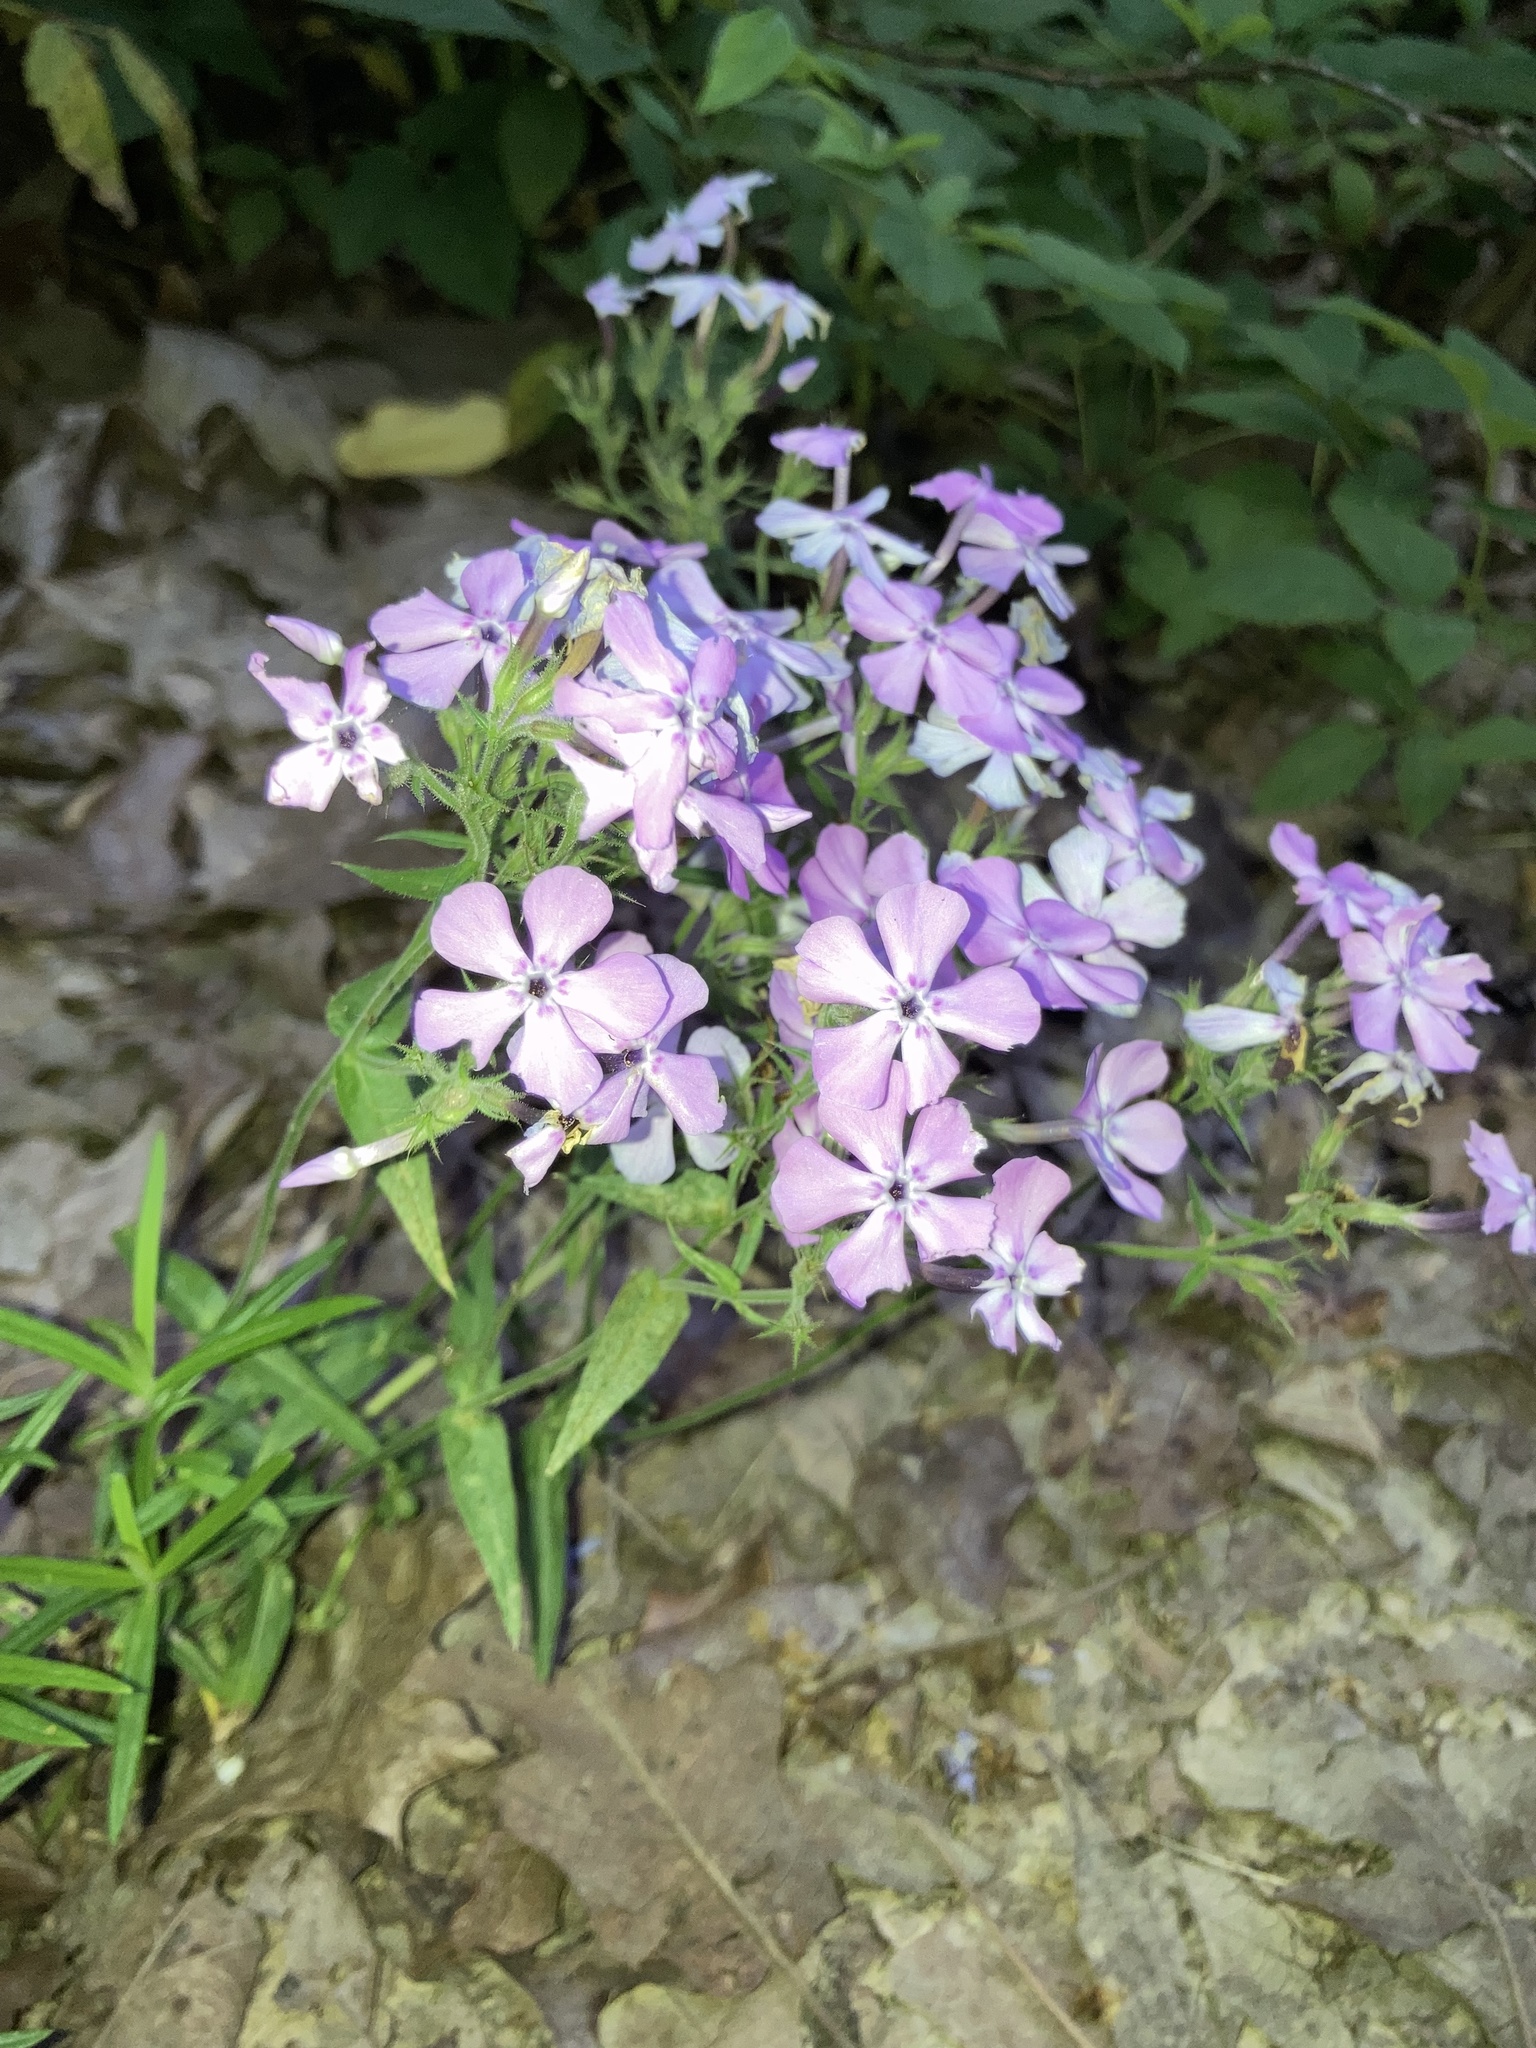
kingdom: Plantae
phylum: Tracheophyta
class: Magnoliopsida
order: Ericales
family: Polemoniaceae
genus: Phlox
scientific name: Phlox pilosa
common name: Prairie phlox
